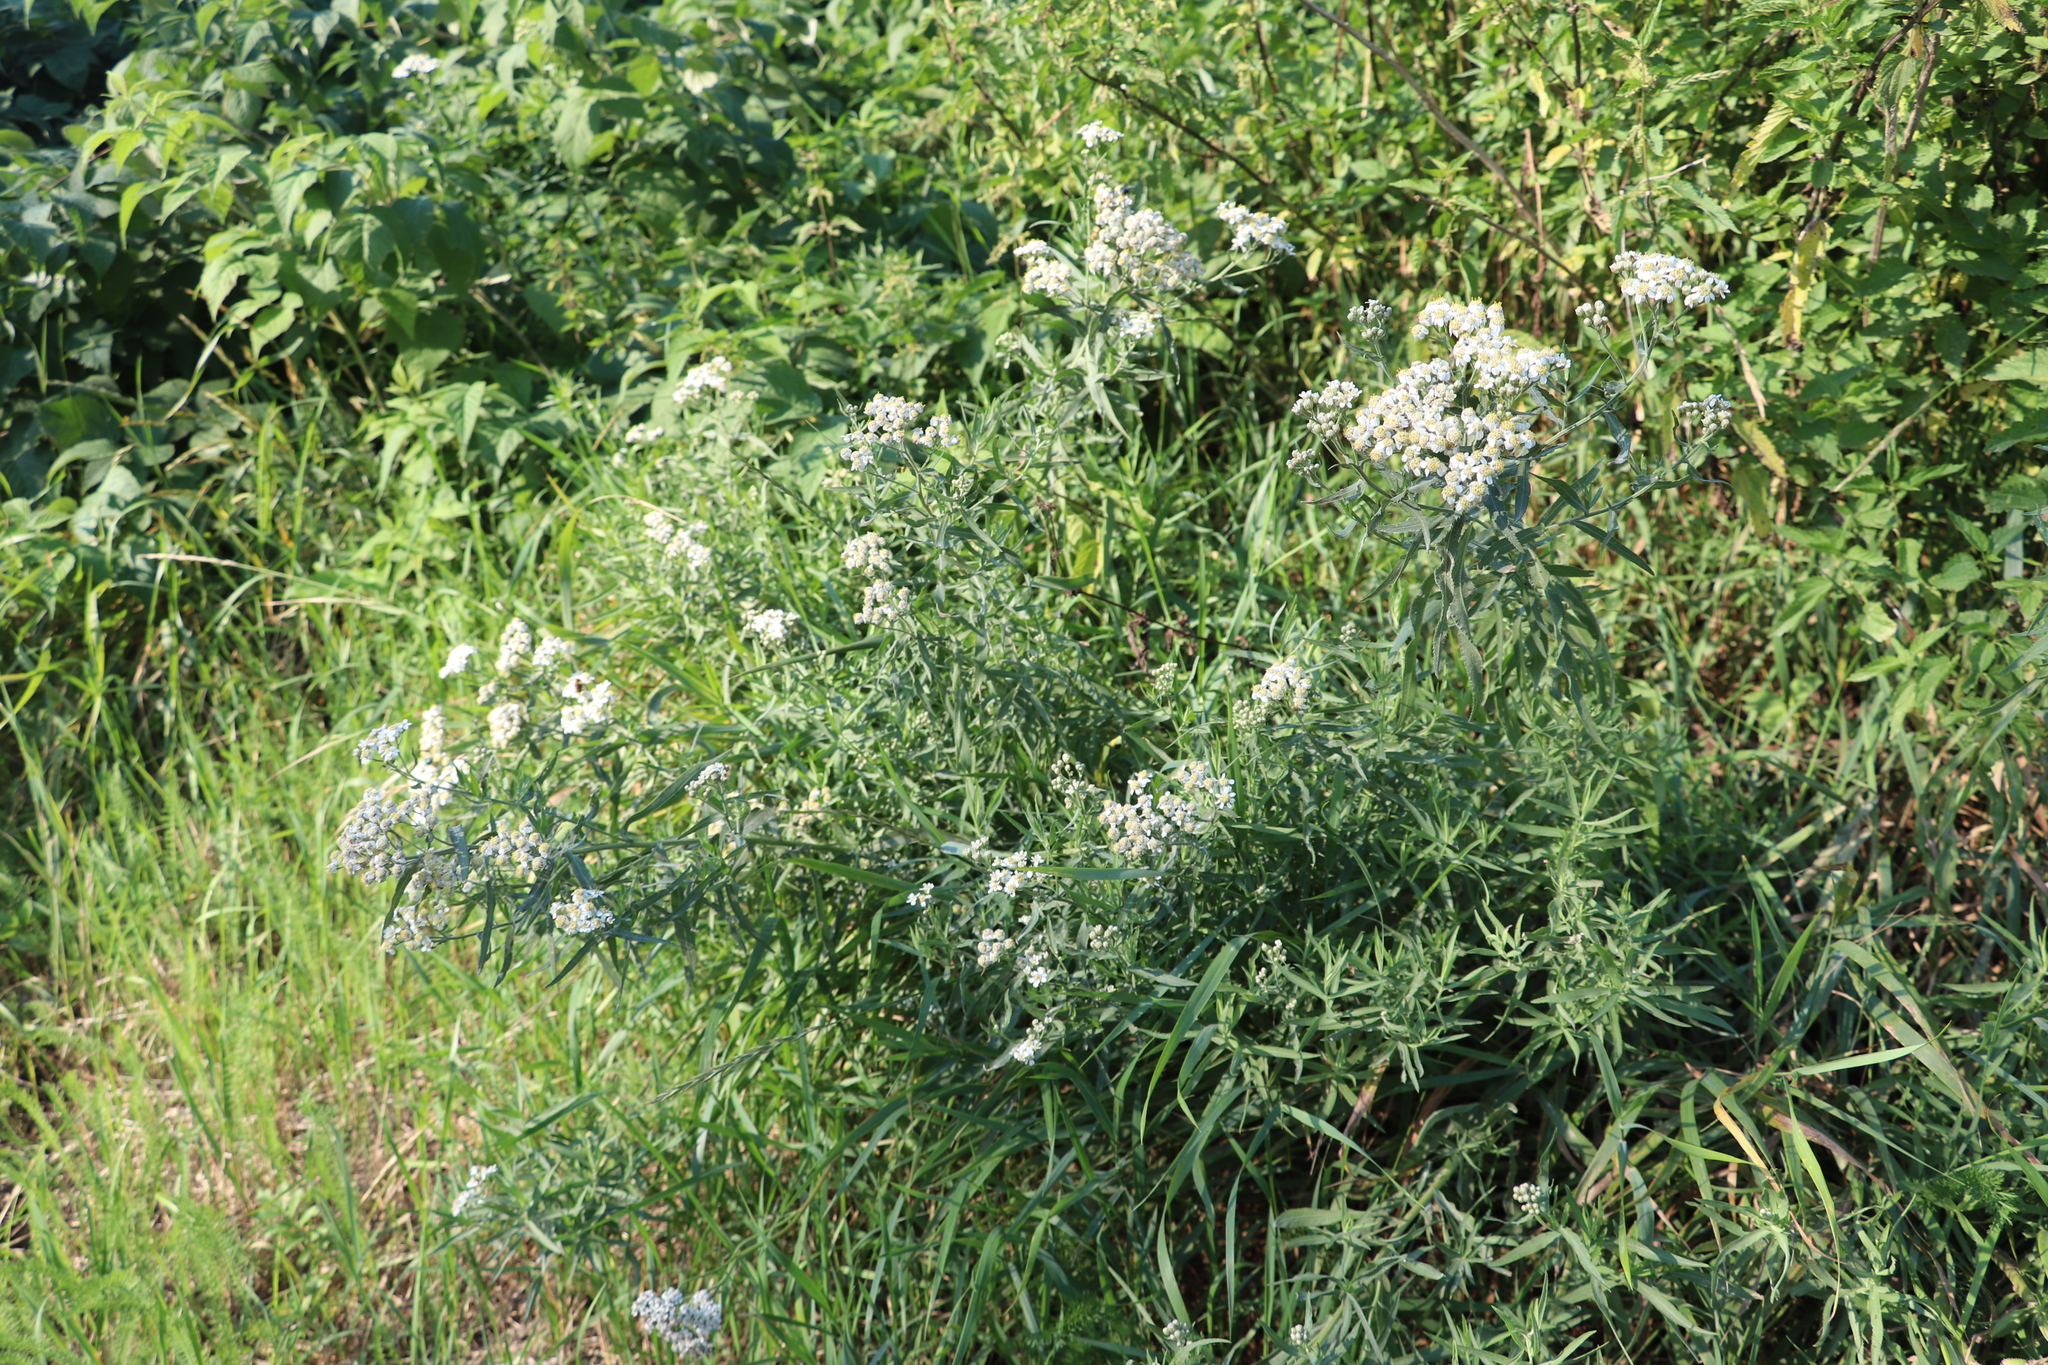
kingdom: Plantae
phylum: Tracheophyta
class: Magnoliopsida
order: Asterales
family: Asteraceae
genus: Achillea
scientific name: Achillea salicifolia
